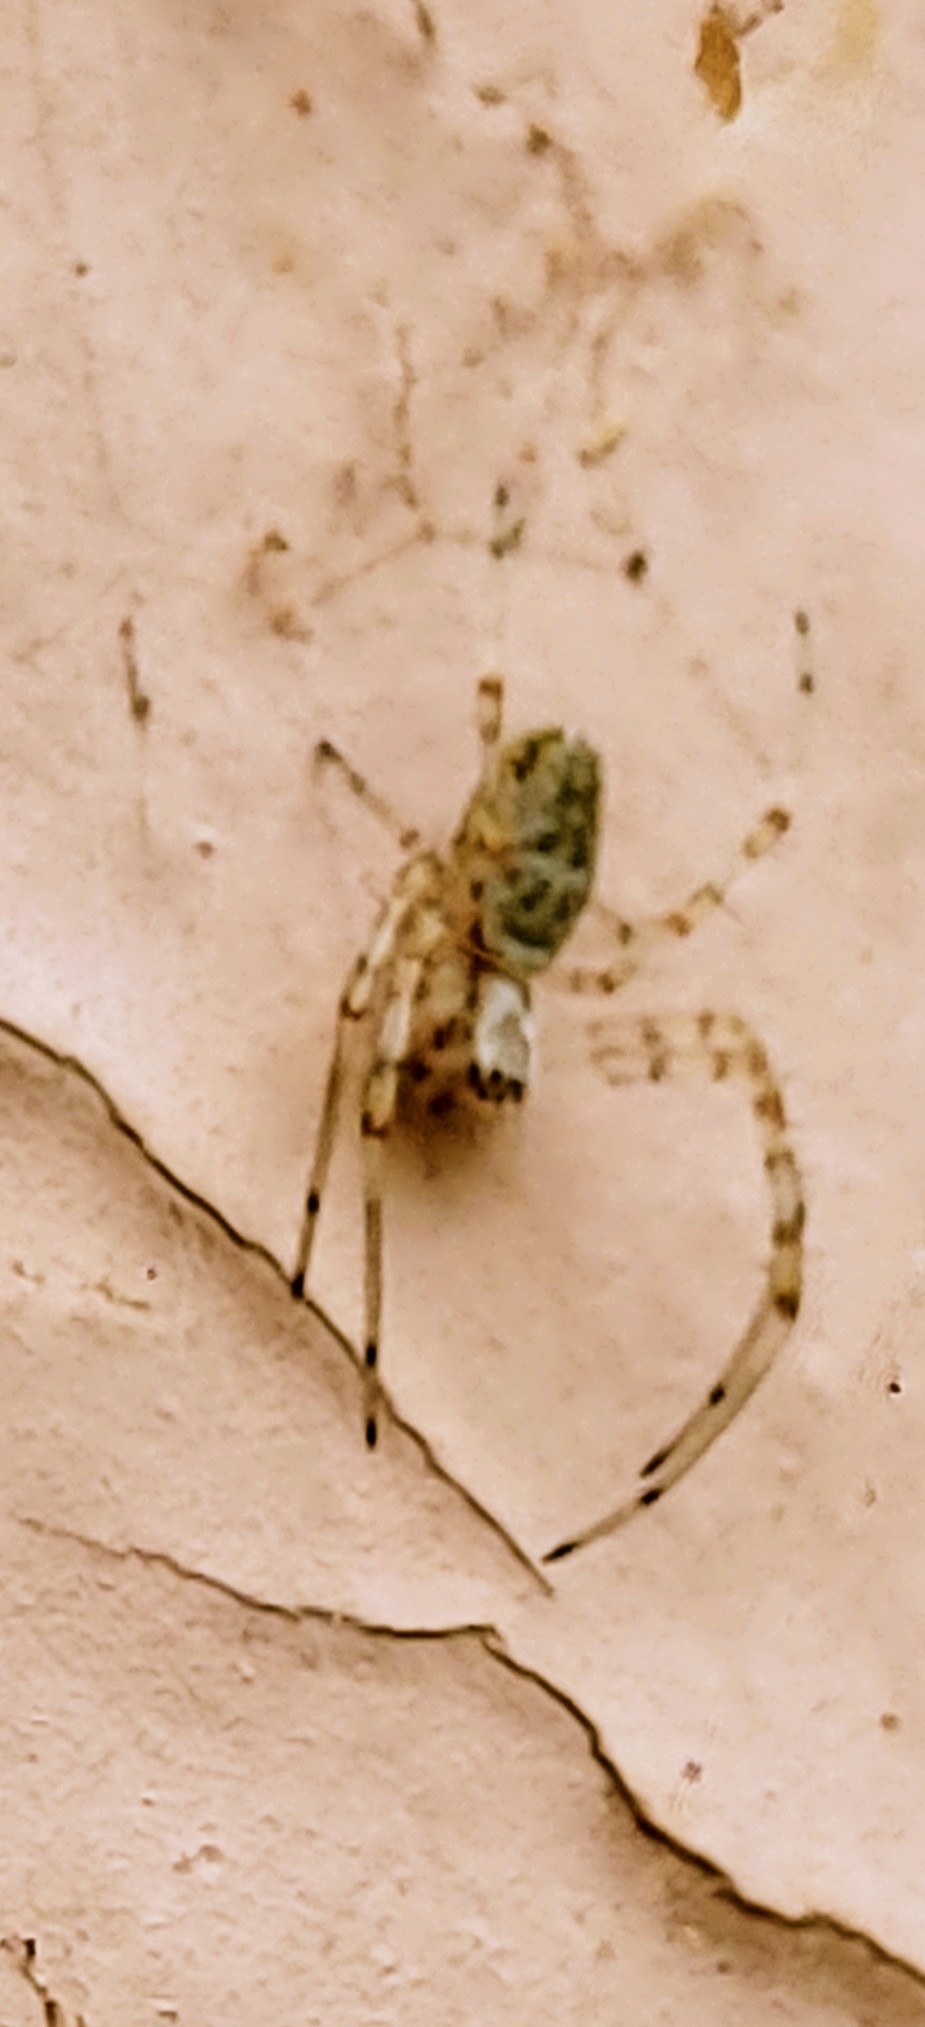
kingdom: Animalia
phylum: Arthropoda
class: Arachnida
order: Araneae
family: Araneidae
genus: Nephilingis
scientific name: Nephilingis cruentata
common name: African hermit spider
